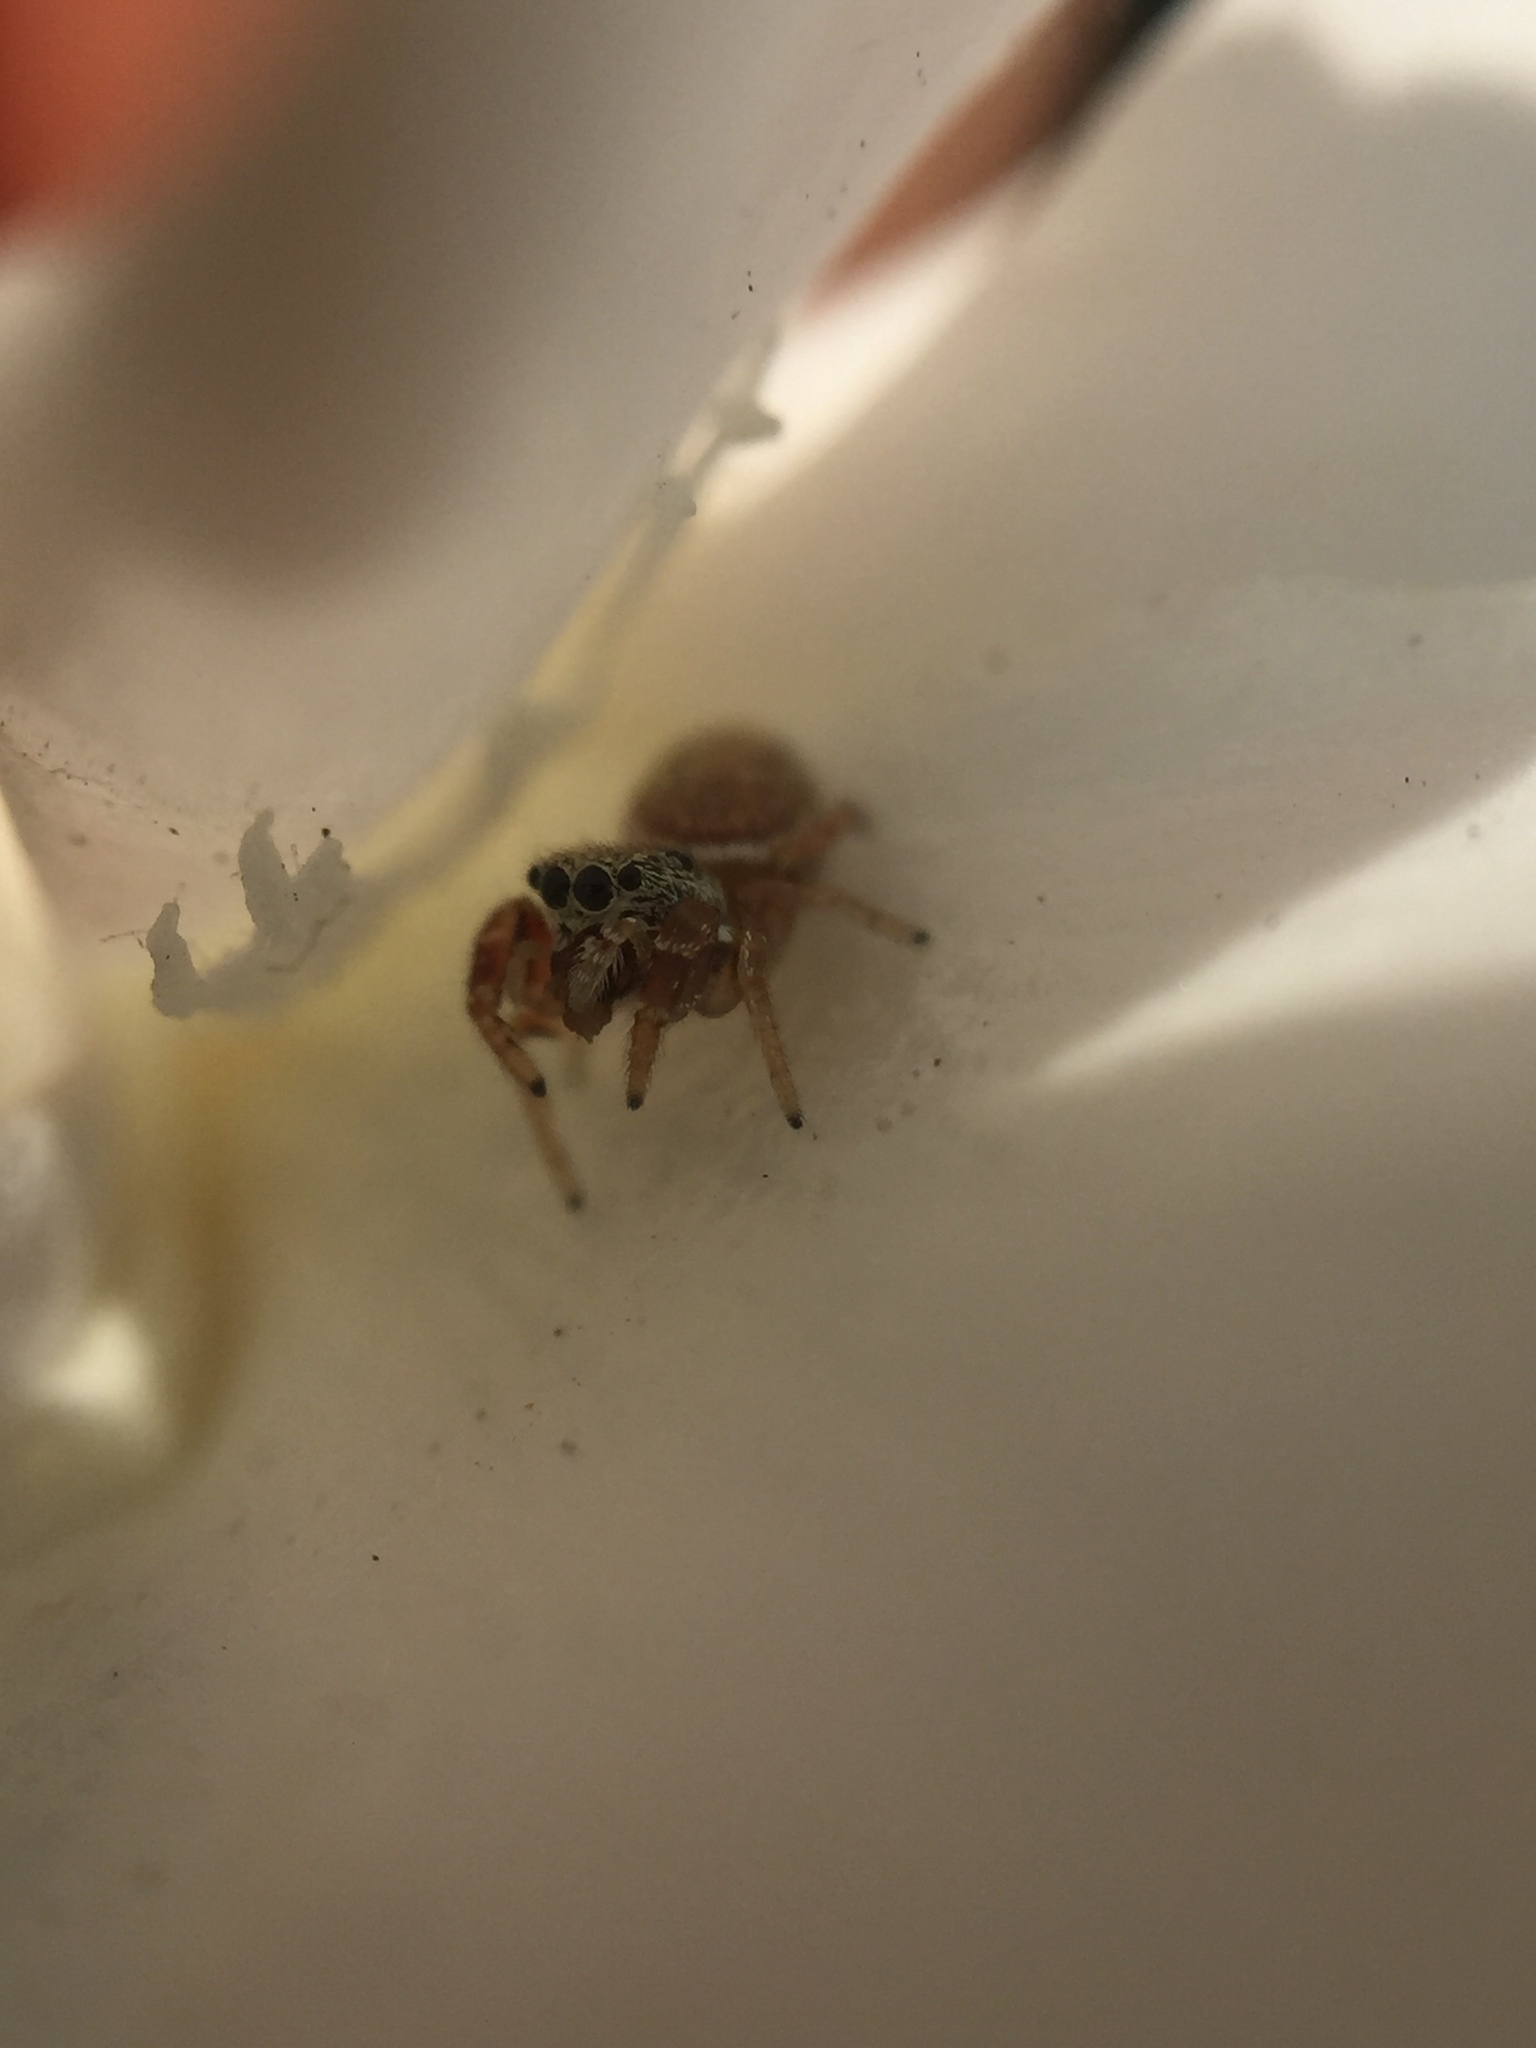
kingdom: Animalia
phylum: Arthropoda
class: Arachnida
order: Araneae
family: Salticidae
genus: Sassacus
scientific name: Sassacus vitis
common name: Jumping spiders
